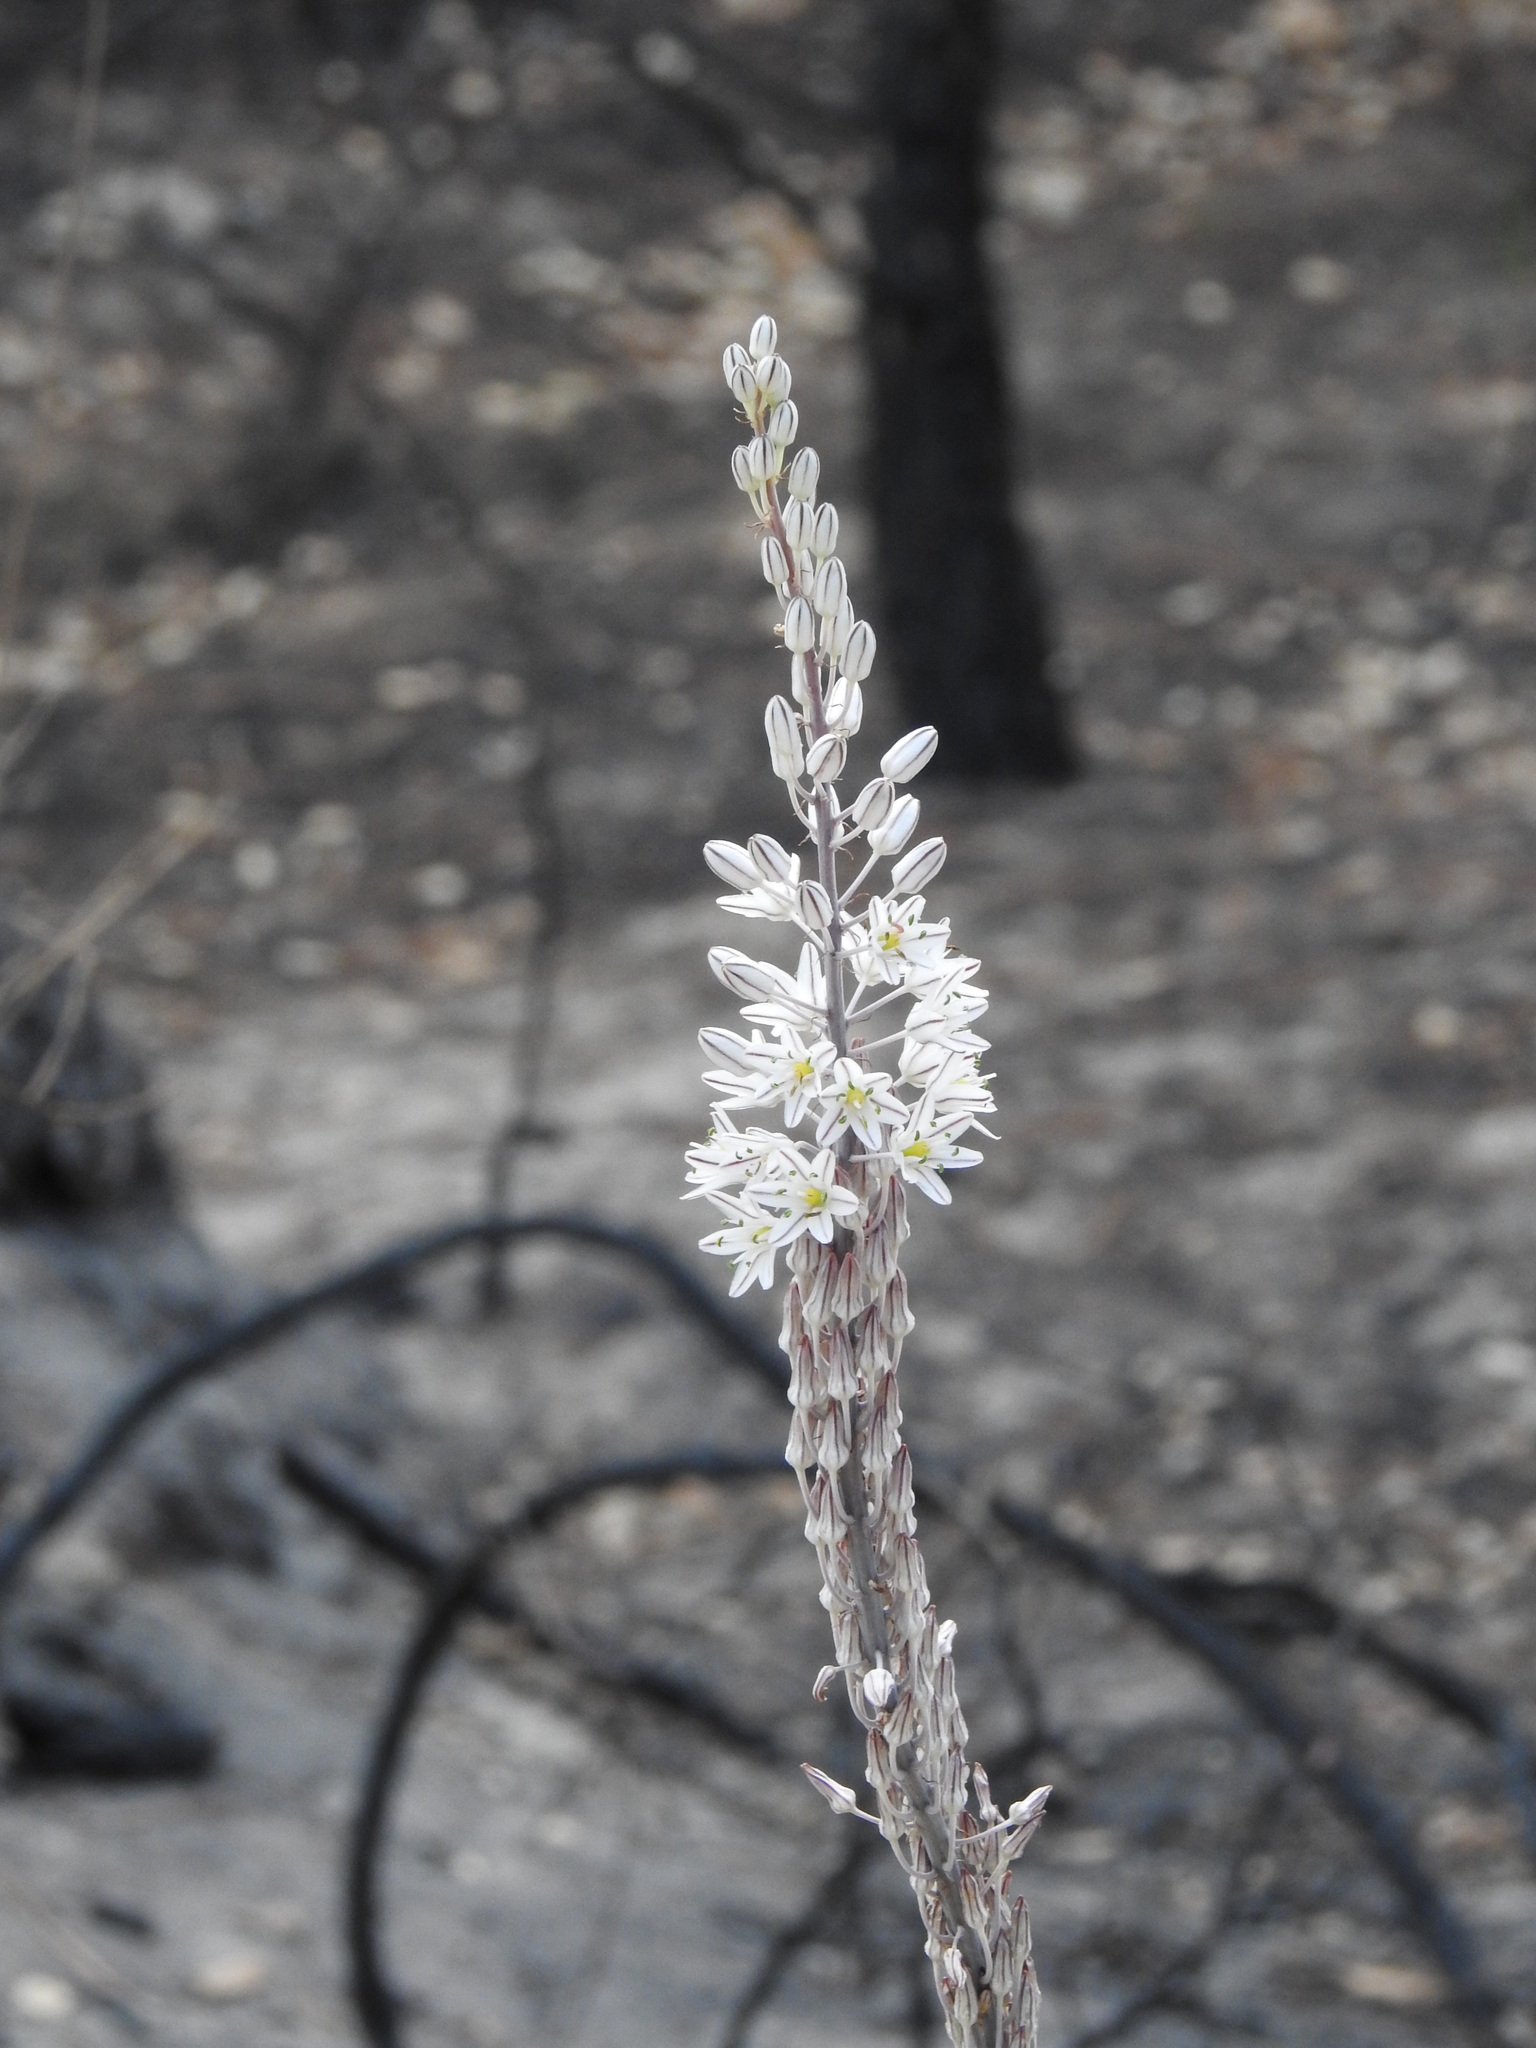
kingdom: Plantae
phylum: Tracheophyta
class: Liliopsida
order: Asparagales
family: Asparagaceae
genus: Drimia
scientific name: Drimia maritima
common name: Maritime squill
